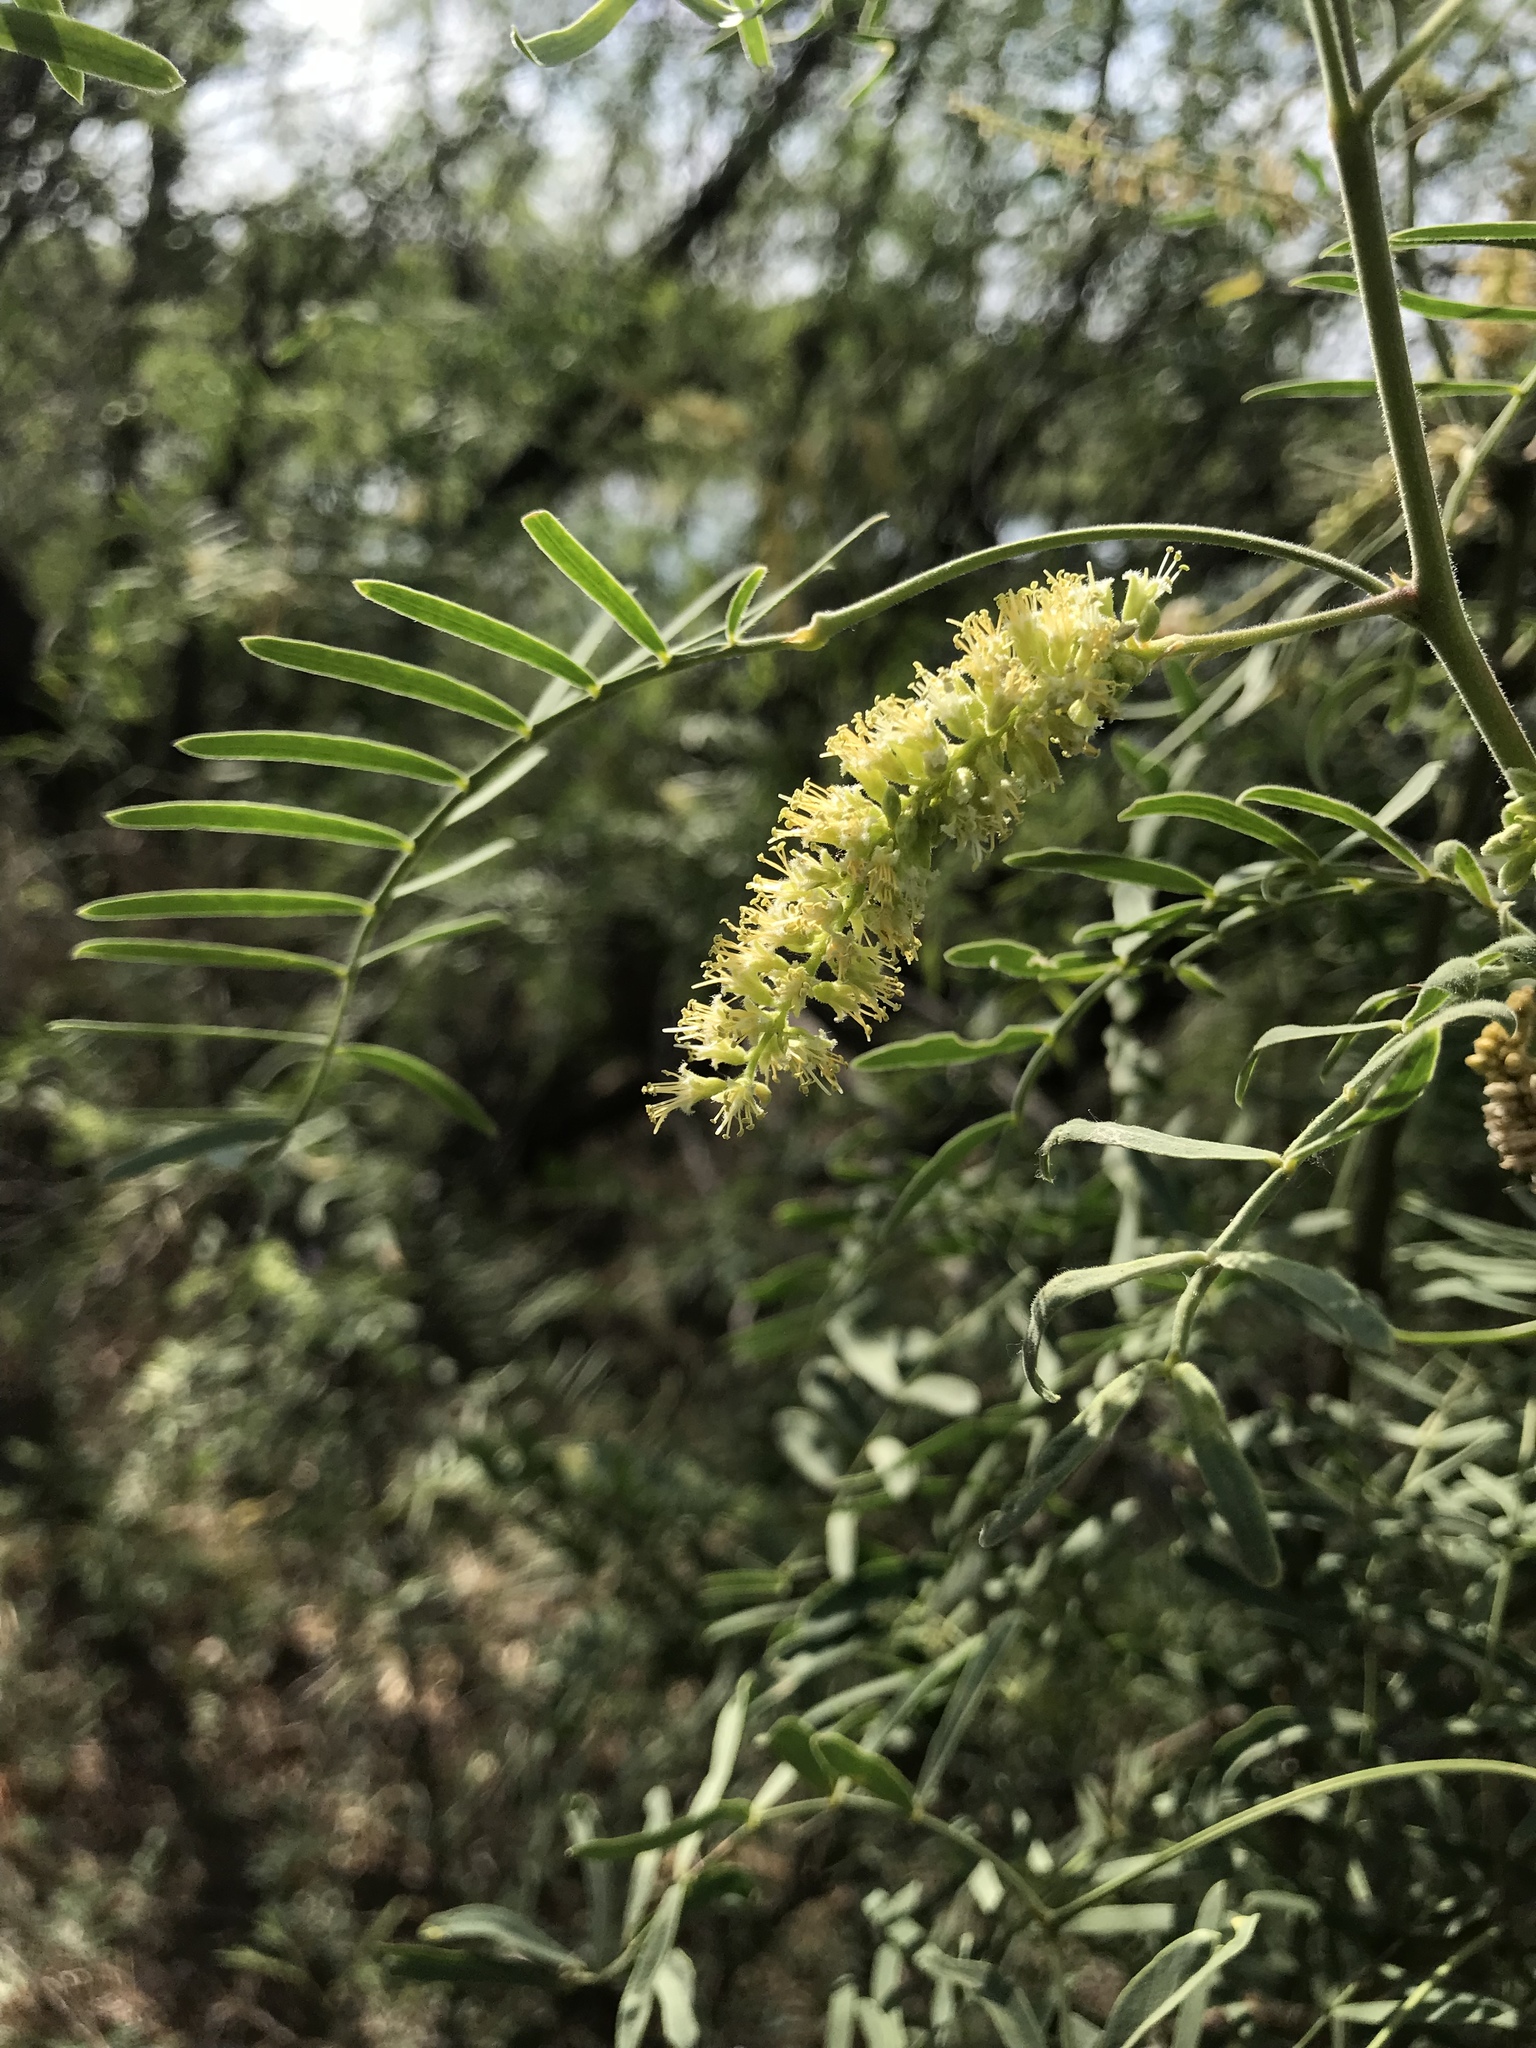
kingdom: Plantae
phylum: Tracheophyta
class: Magnoliopsida
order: Fabales
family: Fabaceae
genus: Prosopis
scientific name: Prosopis glandulosa
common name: Honey mesquite
